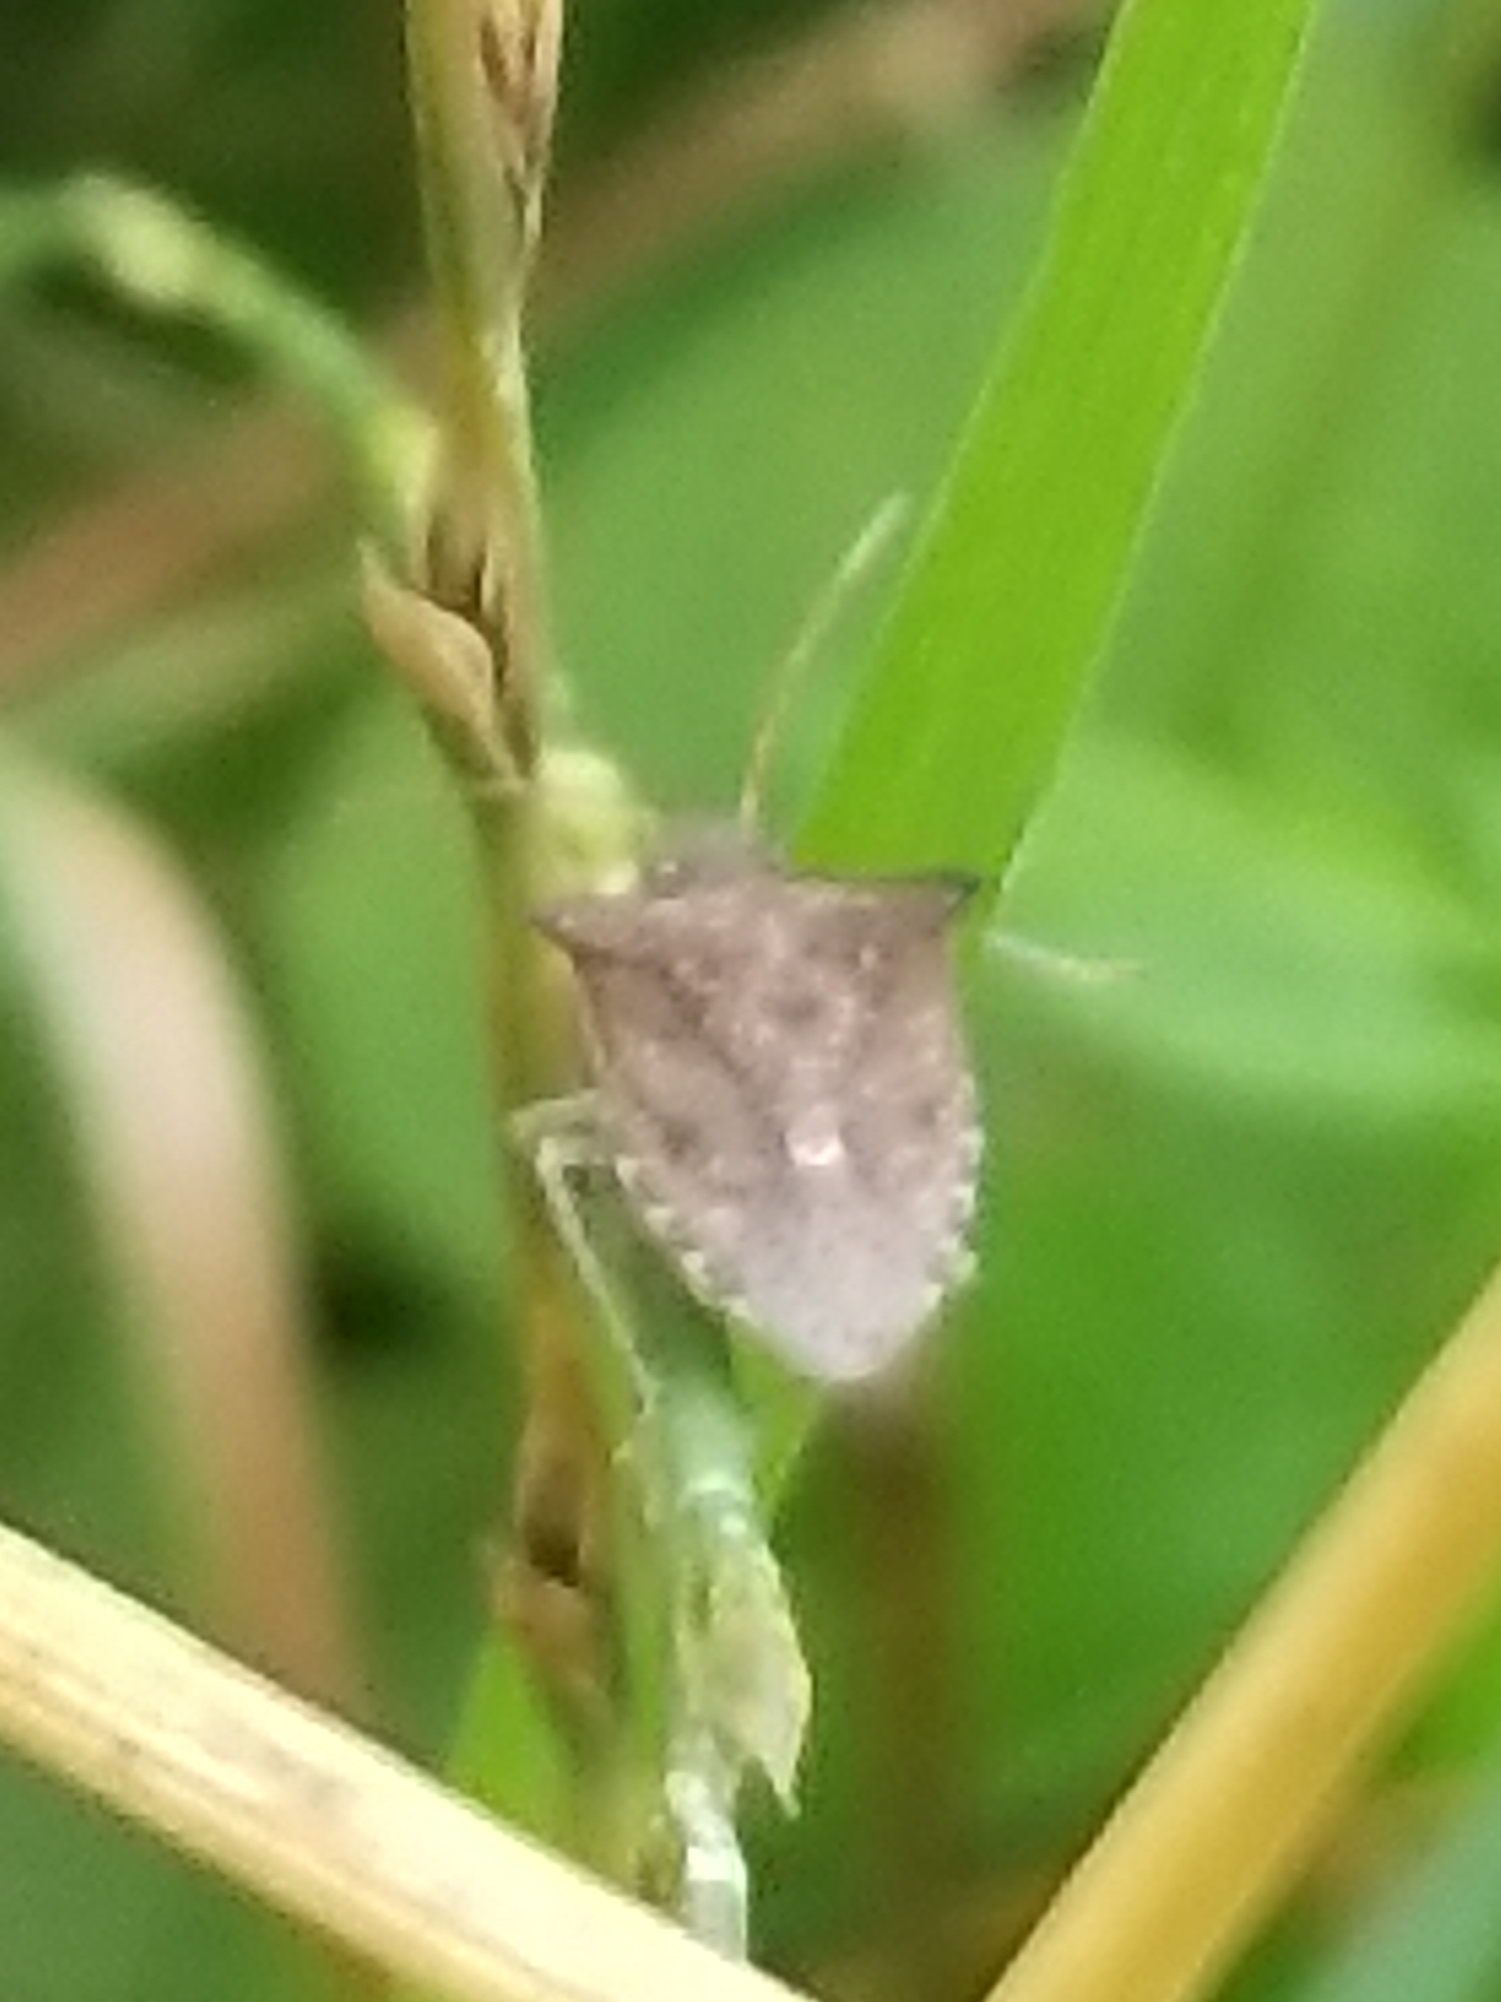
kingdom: Animalia
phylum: Arthropoda
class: Insecta
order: Hemiptera
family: Pentatomidae
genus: Euschistus
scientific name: Euschistus tristigmus
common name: Dusky stink bug
